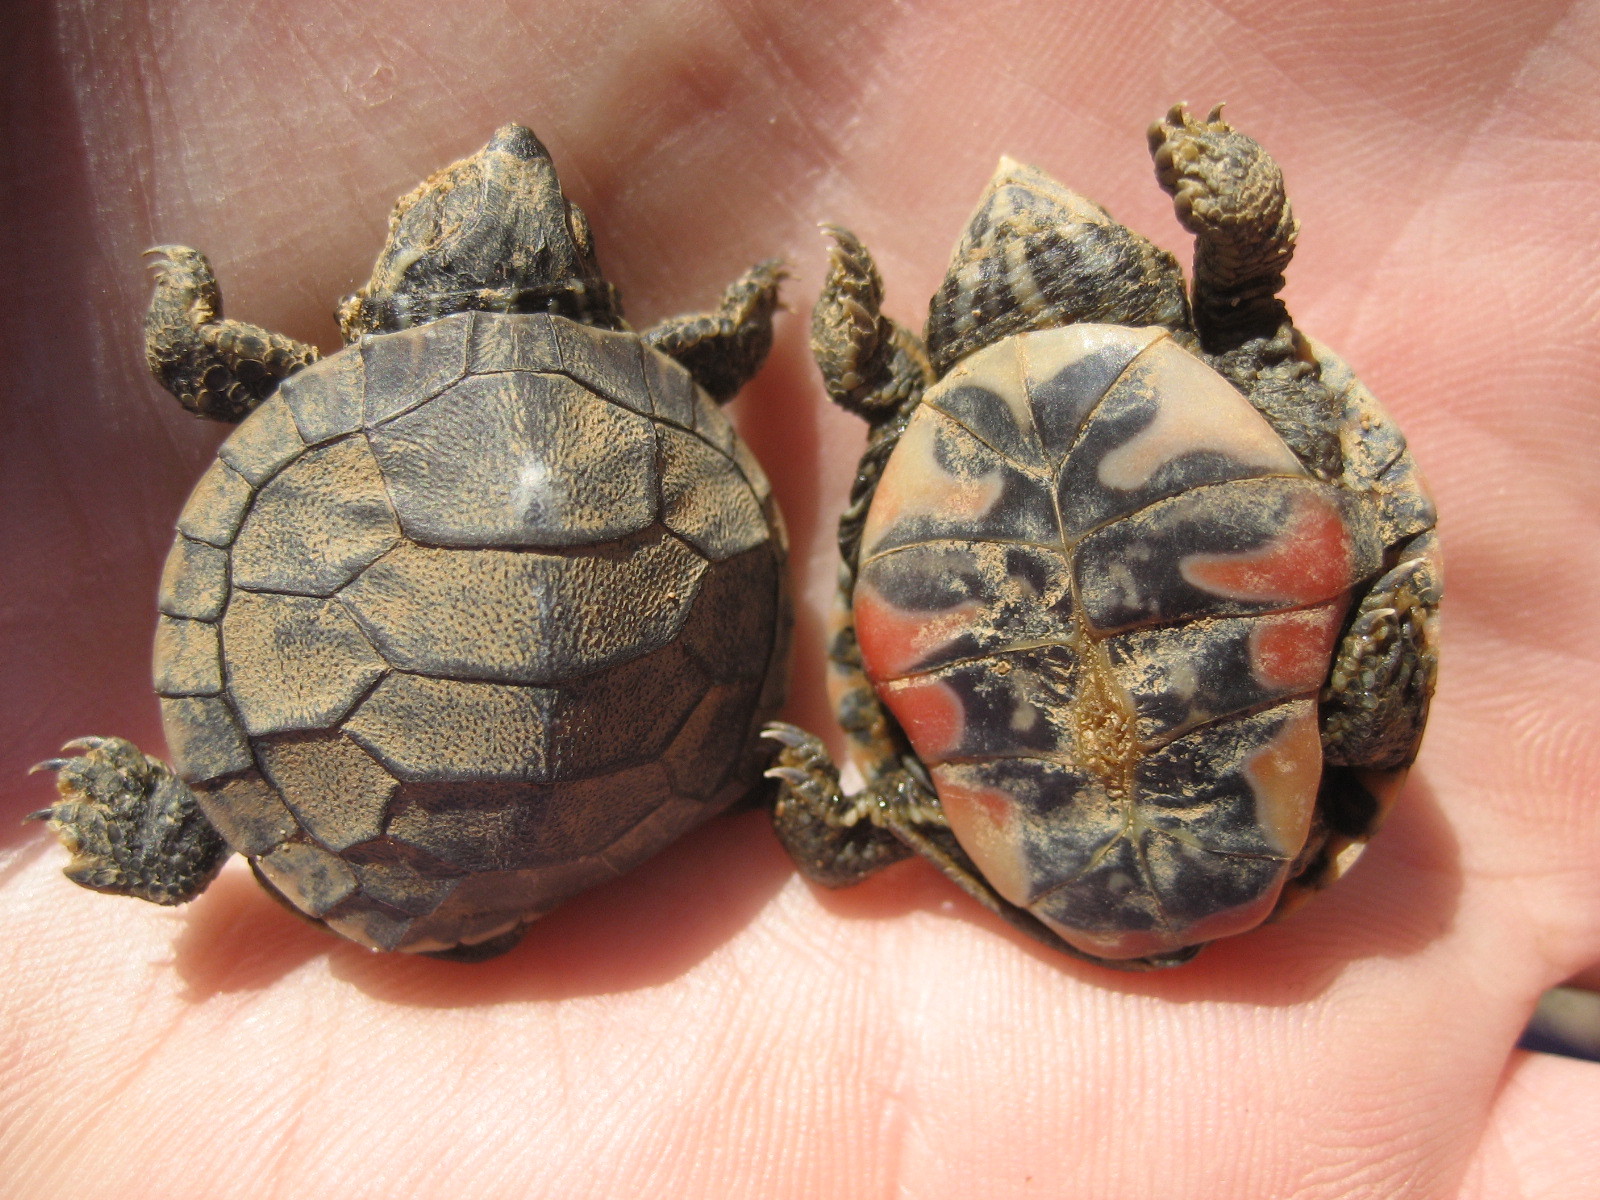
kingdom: Animalia
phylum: Chordata
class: Testudines
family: Emydidae
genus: Chrysemys
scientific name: Chrysemys picta
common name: Painted turtle
